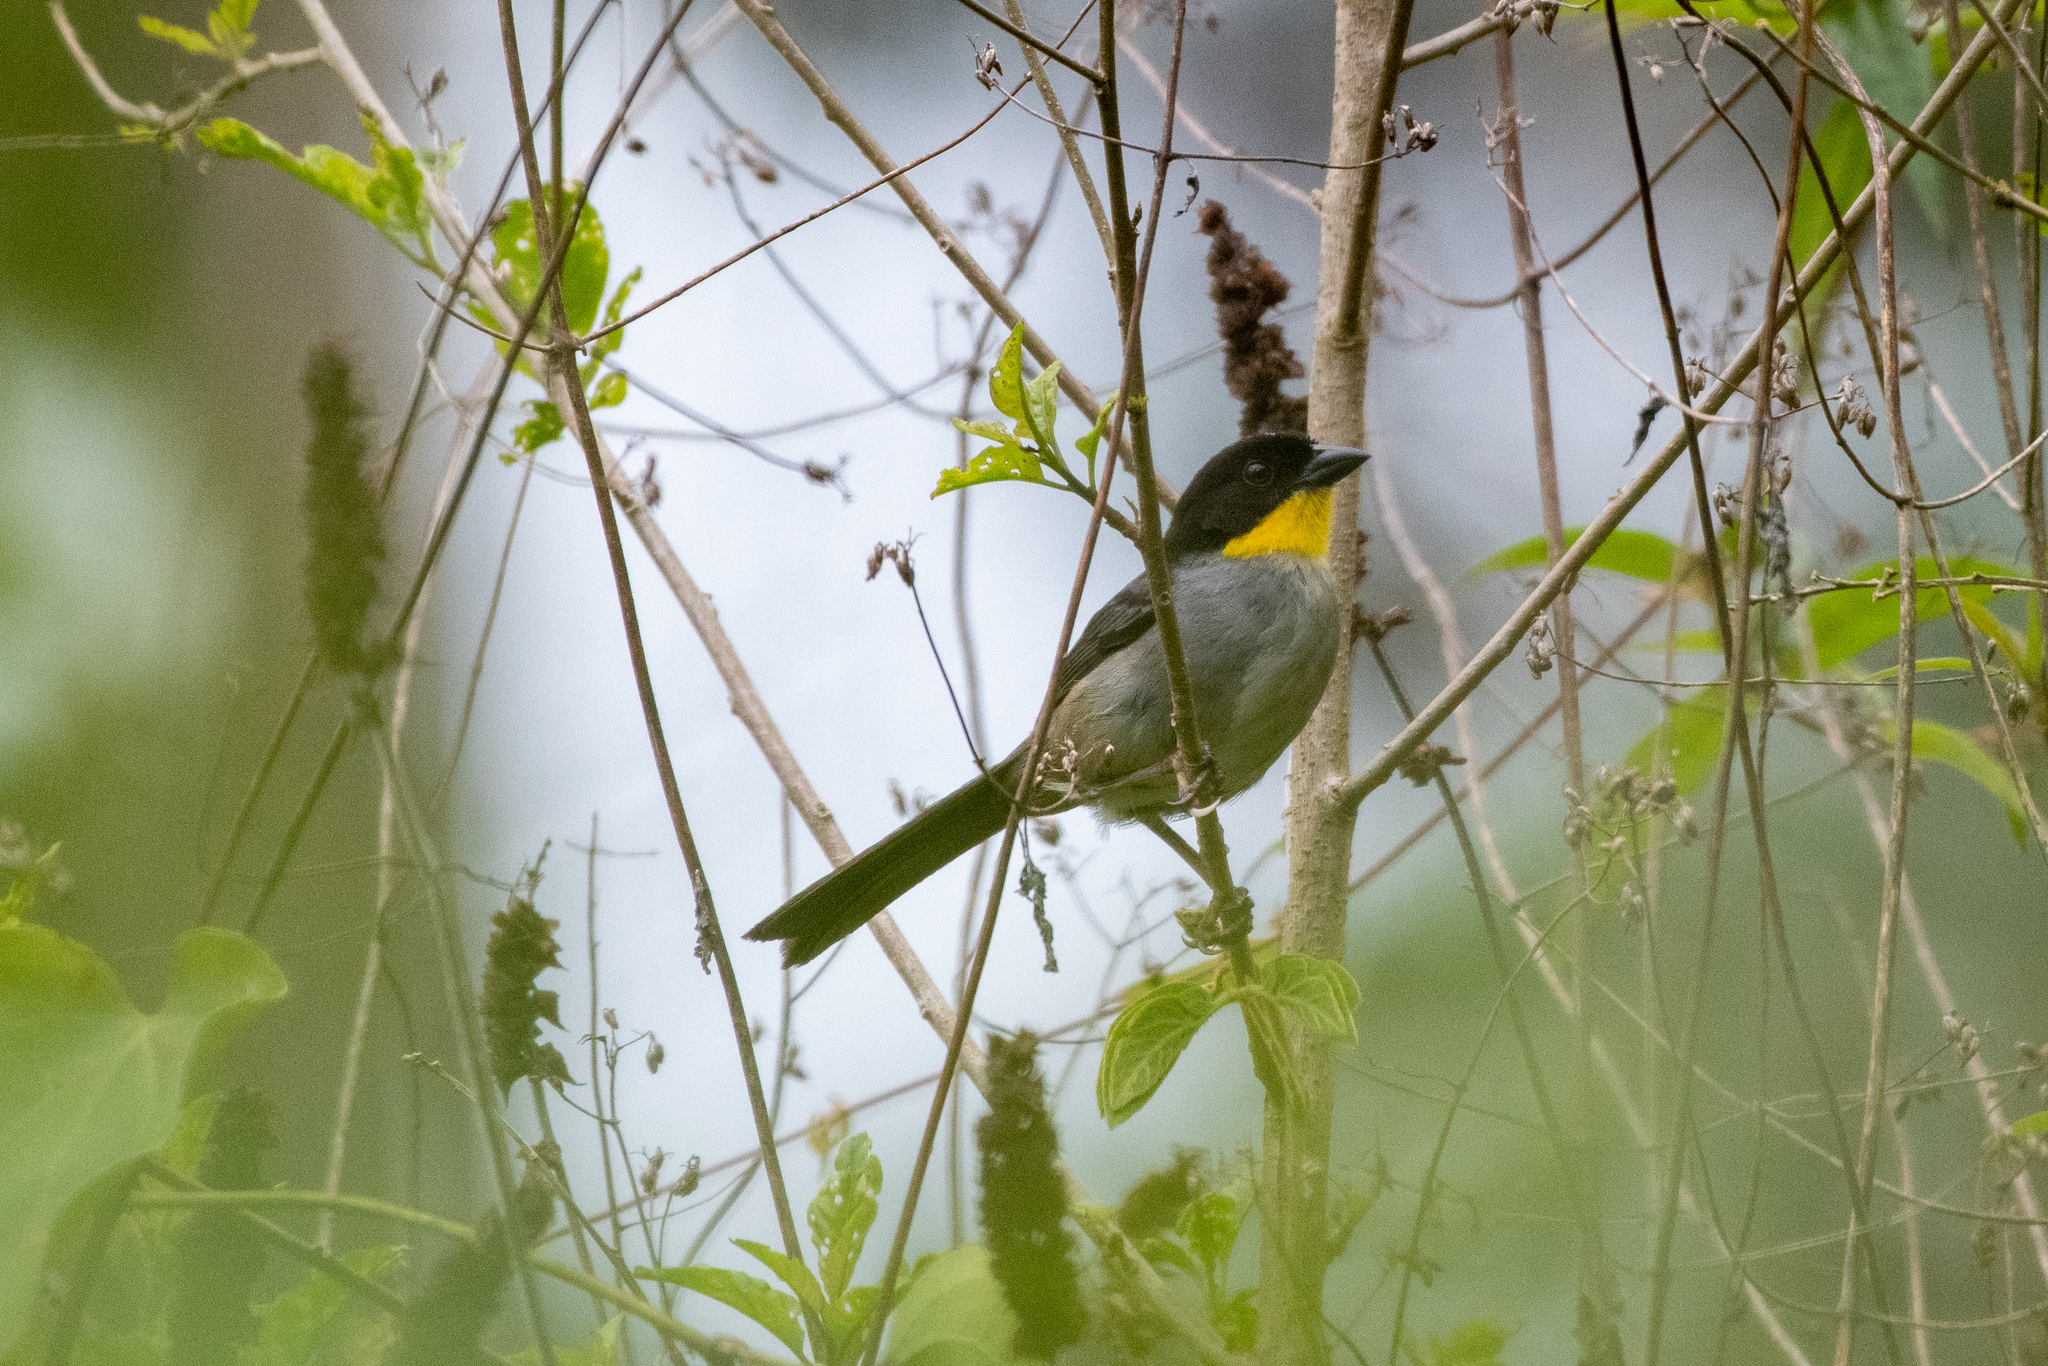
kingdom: Animalia
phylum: Chordata
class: Aves
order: Passeriformes
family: Passerellidae
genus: Atlapetes
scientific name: Atlapetes albinucha
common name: White-naped brush-finch
